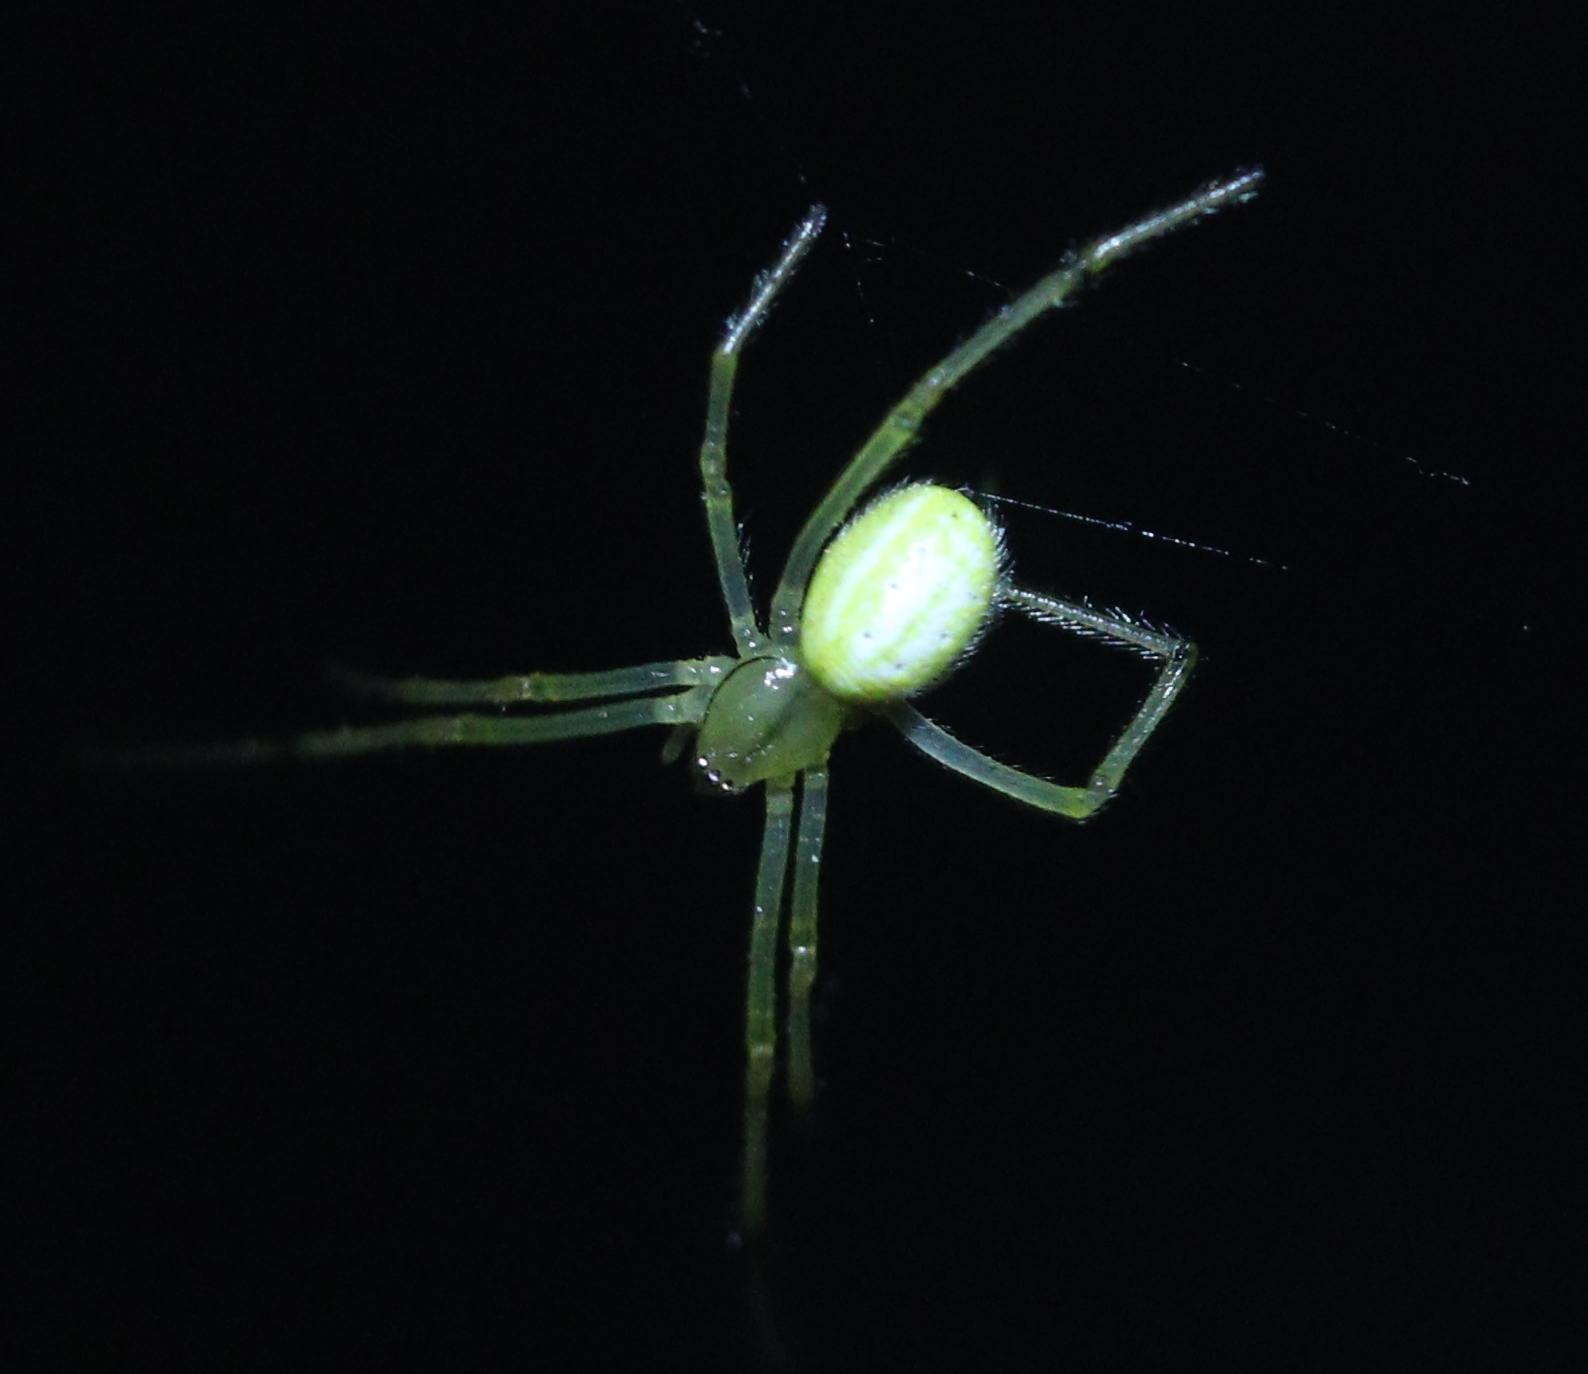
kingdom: Animalia
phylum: Arthropoda
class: Arachnida
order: Araneae
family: Theridiidae
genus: Enoplognatha
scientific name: Enoplognatha
